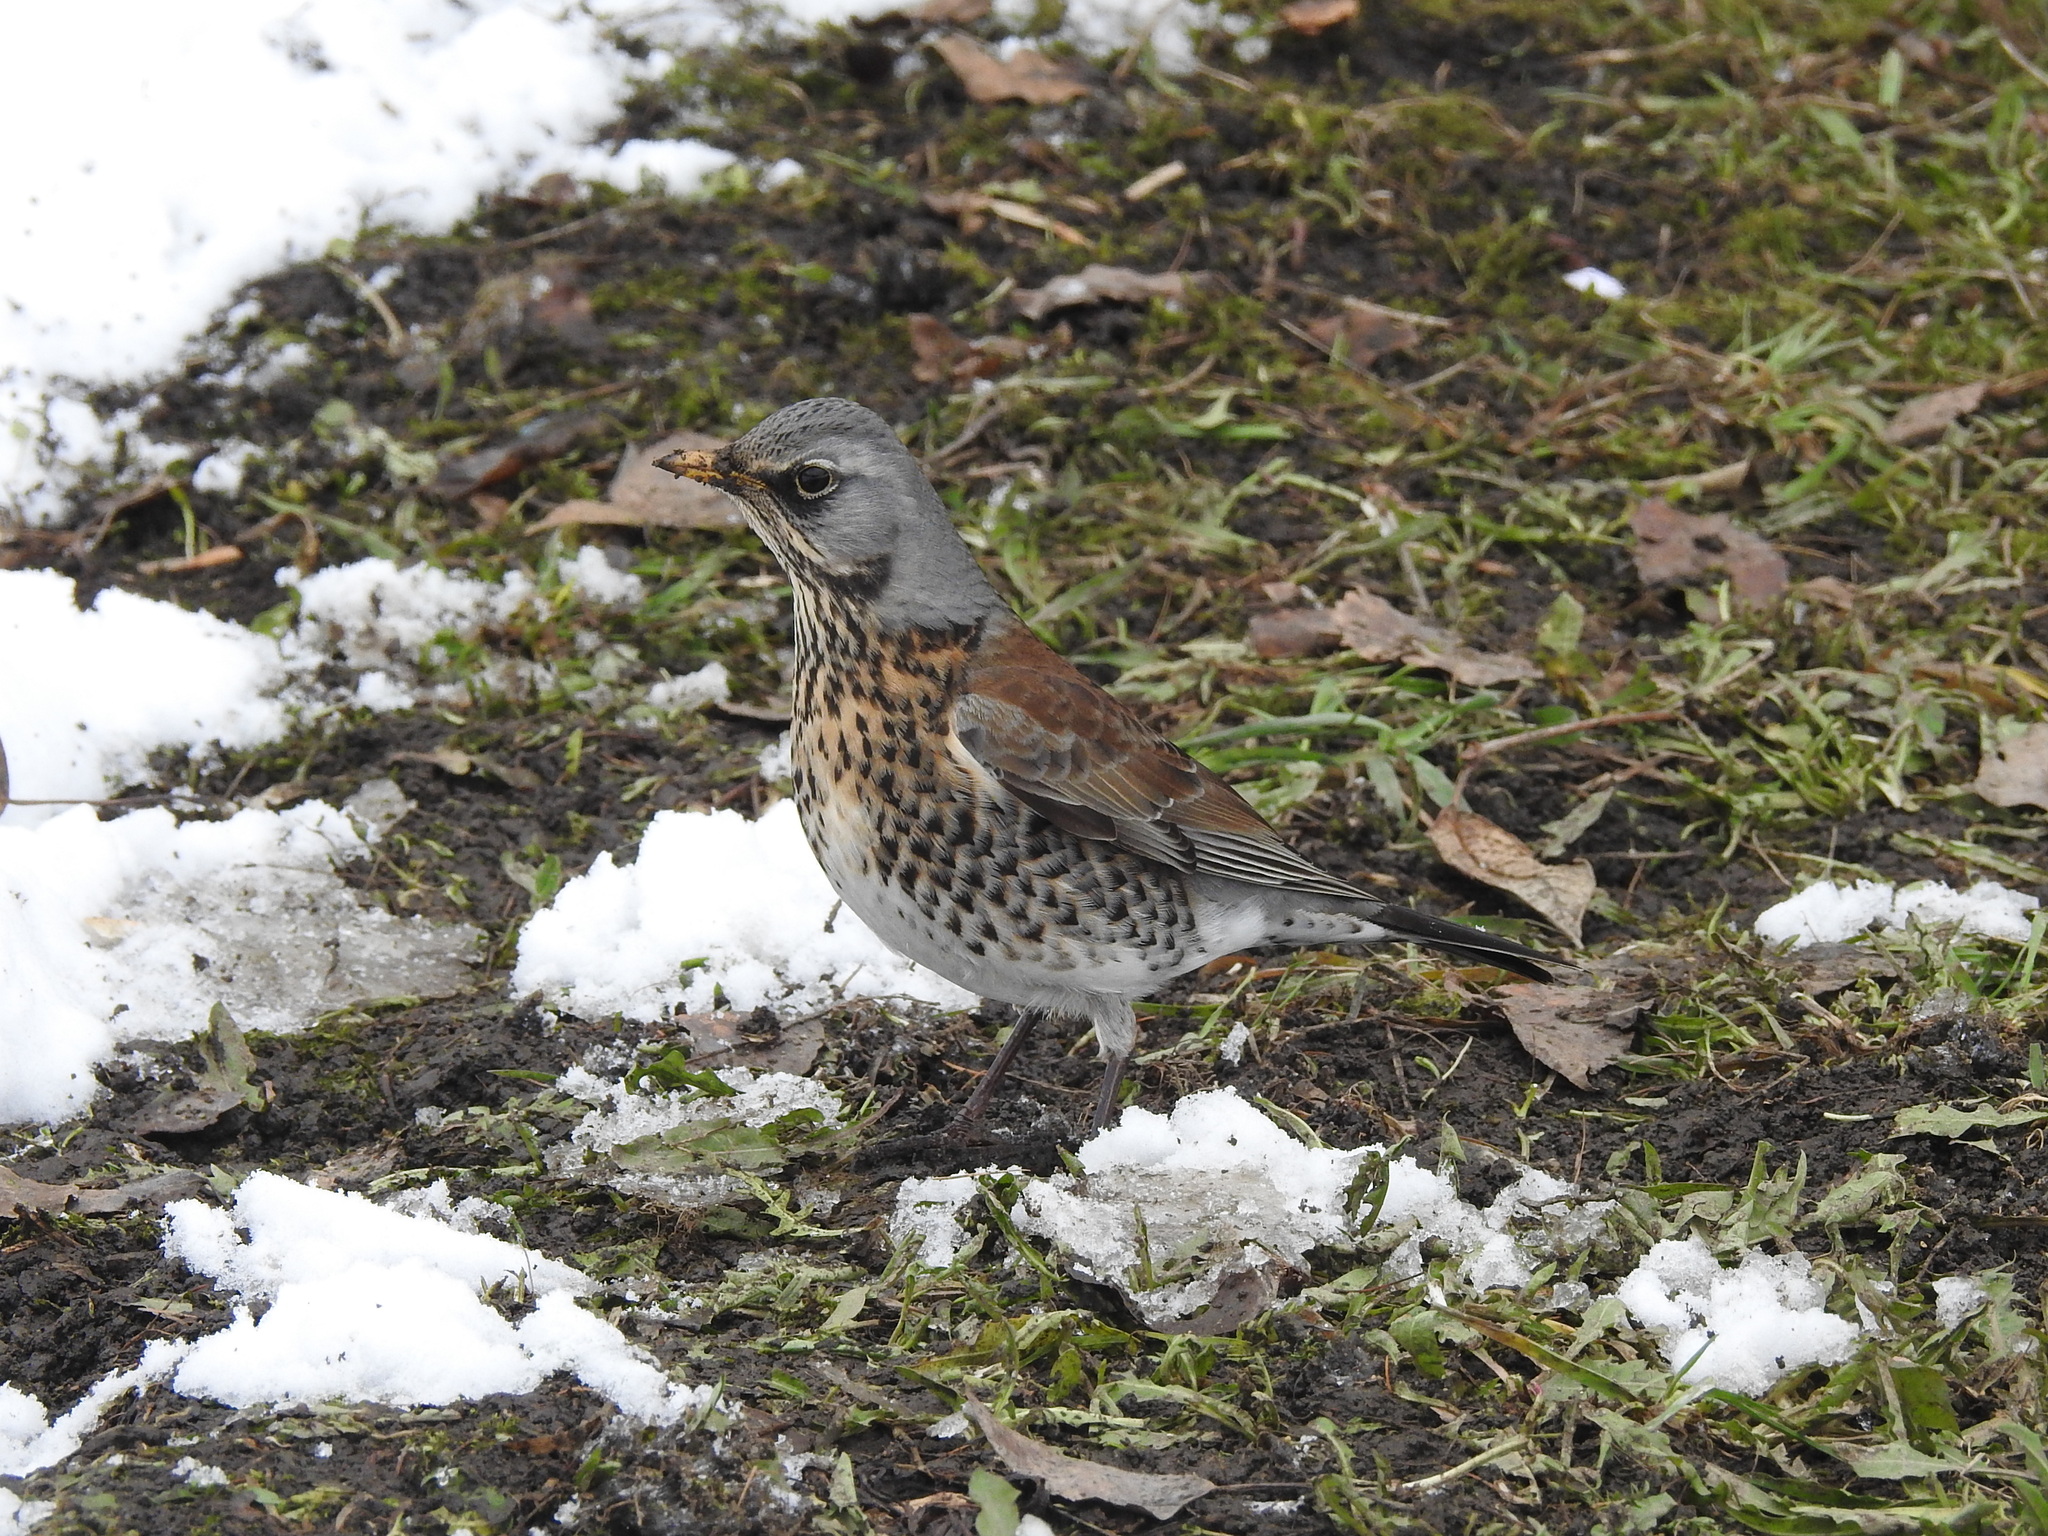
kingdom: Animalia
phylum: Chordata
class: Aves
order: Passeriformes
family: Turdidae
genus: Turdus
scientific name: Turdus pilaris
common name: Fieldfare
